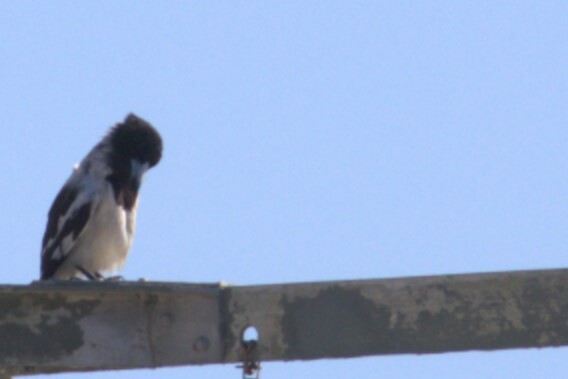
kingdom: Animalia
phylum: Chordata
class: Aves
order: Passeriformes
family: Cracticidae
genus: Cracticus
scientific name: Cracticus nigrogularis
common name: Pied butcherbird
